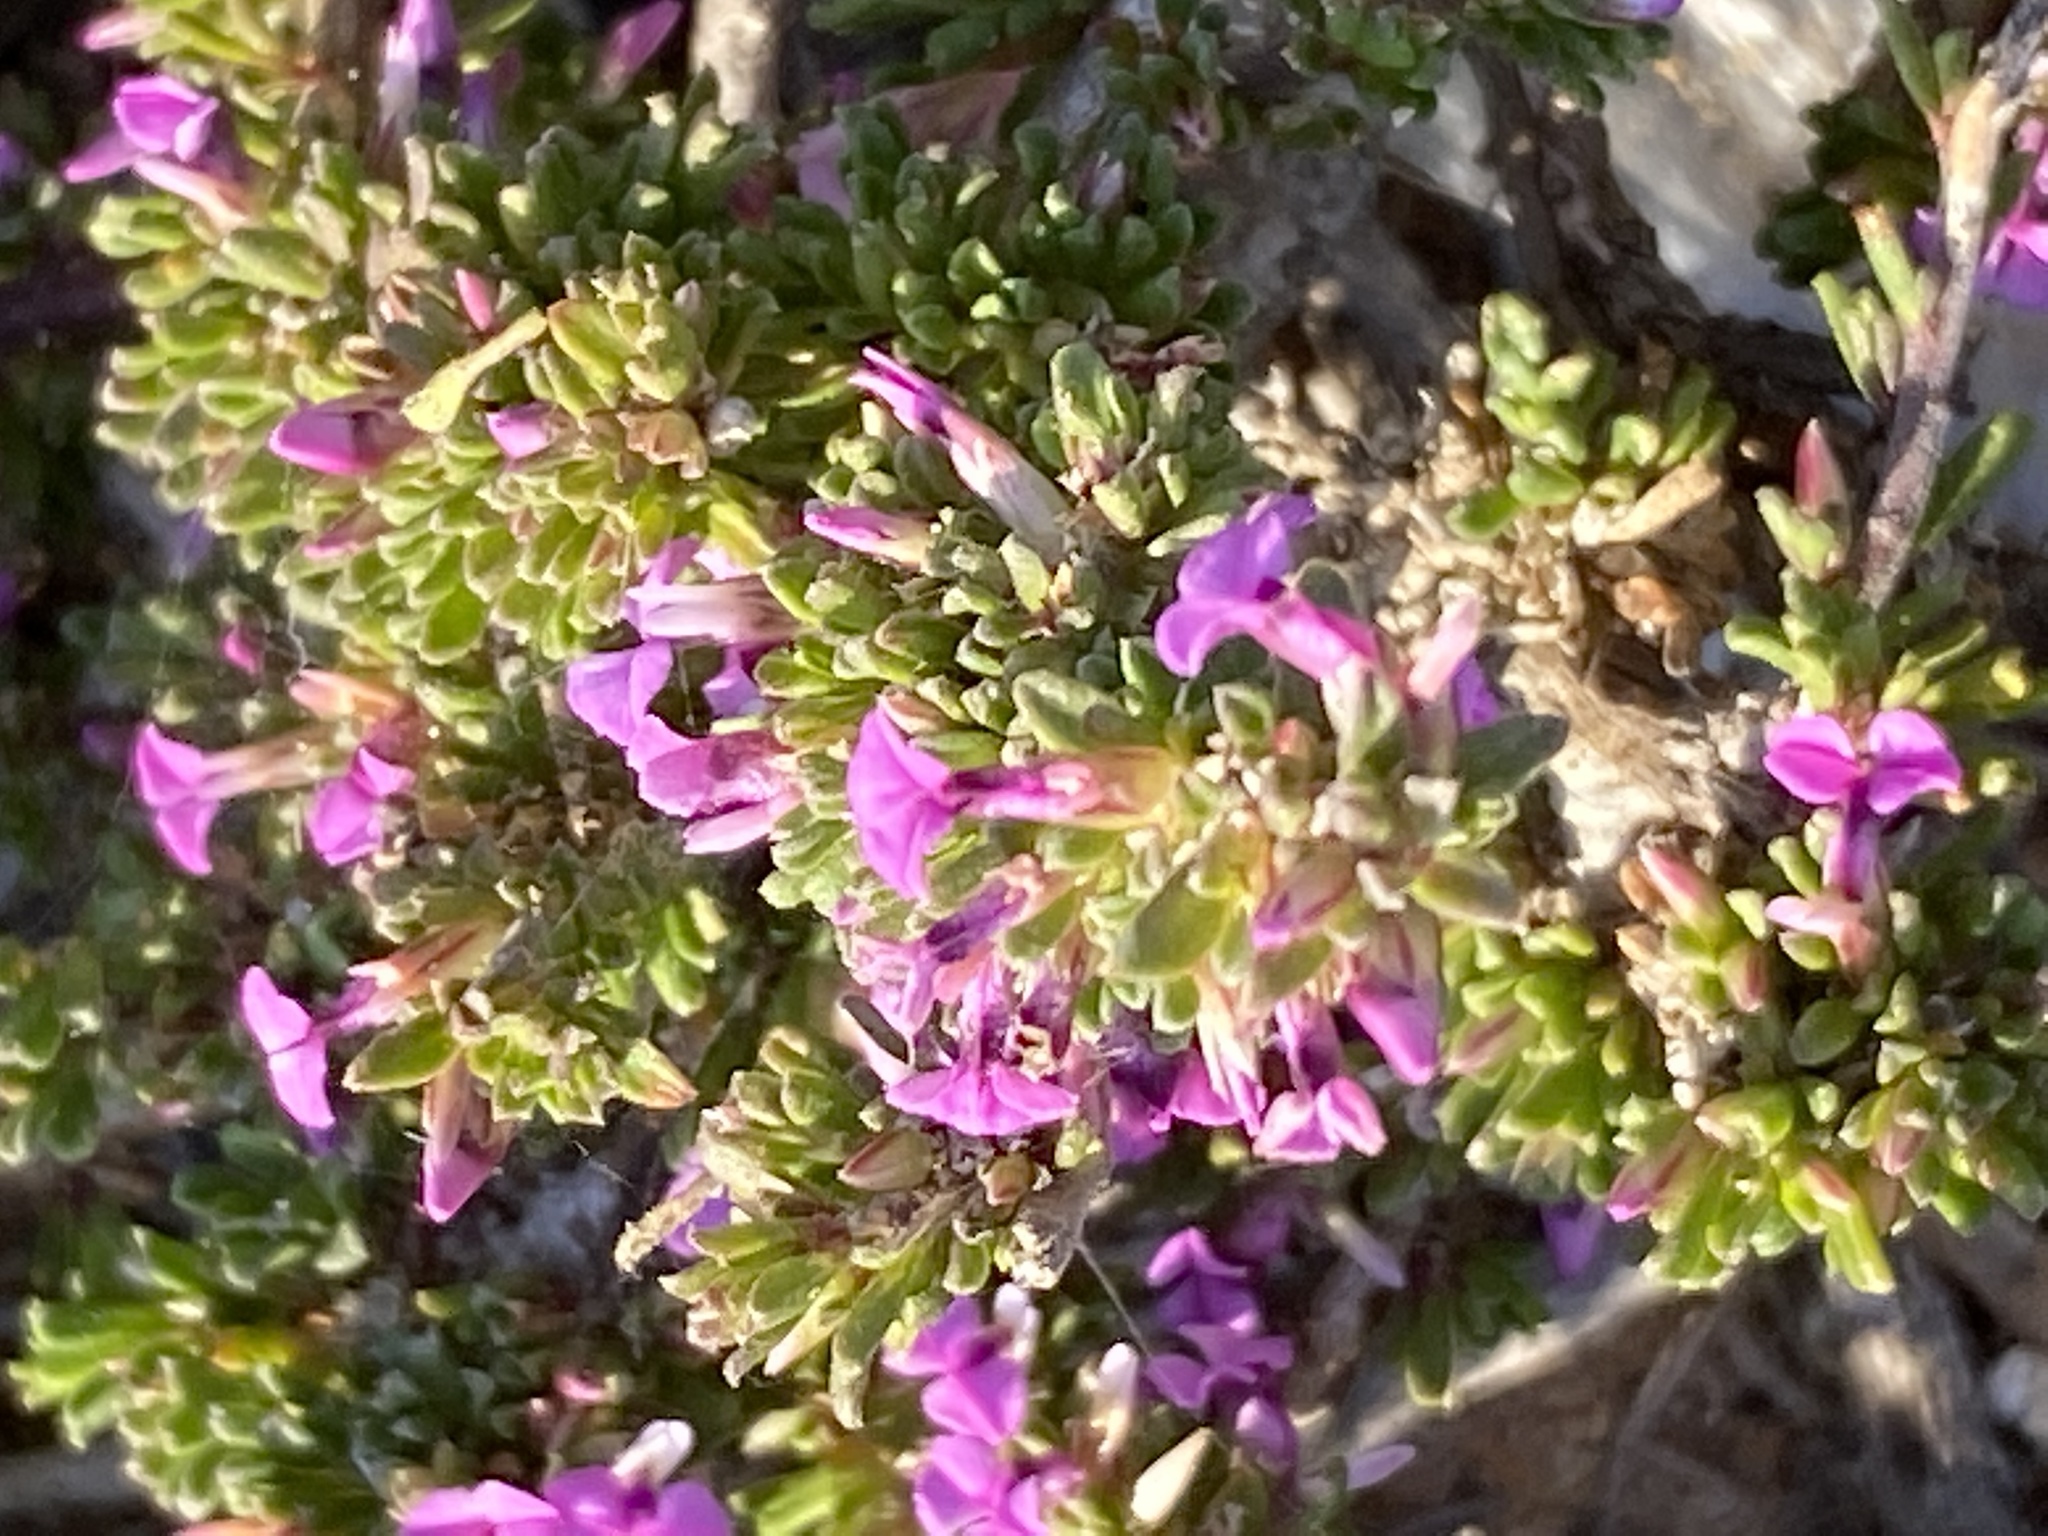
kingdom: Plantae
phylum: Tracheophyta
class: Magnoliopsida
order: Fabales
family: Polygalaceae
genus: Muraltia
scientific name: Muraltia barkerae
